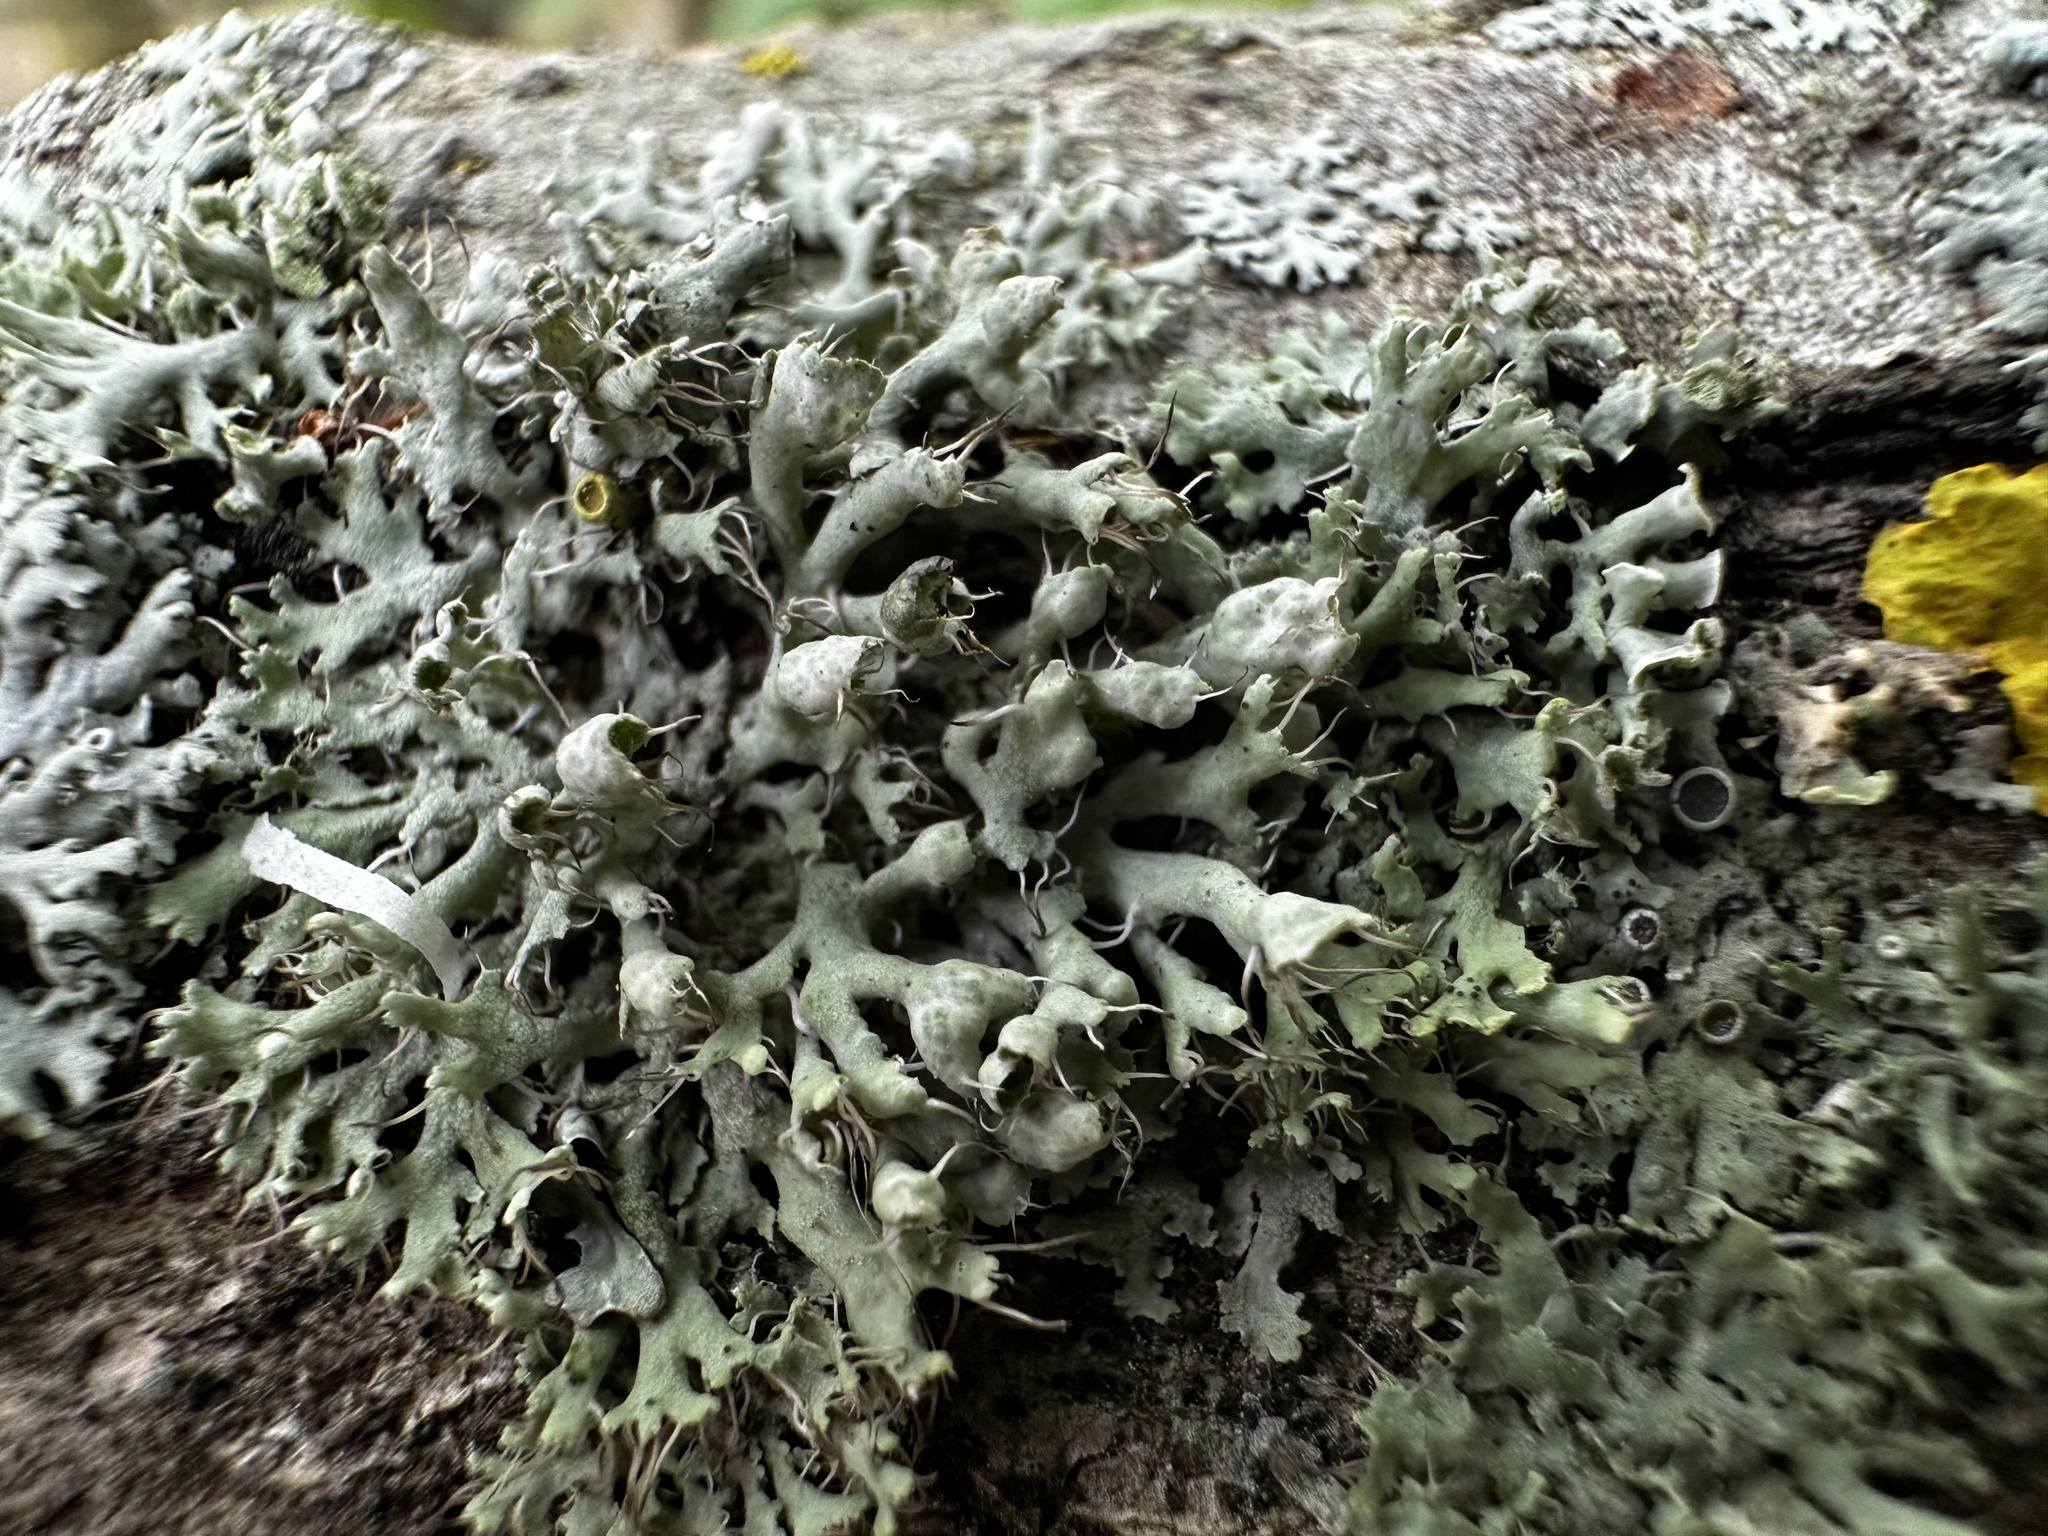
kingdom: Fungi
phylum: Ascomycota
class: Lecanoromycetes
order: Caliciales
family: Physciaceae
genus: Physcia
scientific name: Physcia adscendens
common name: Hooded rosette lichen
